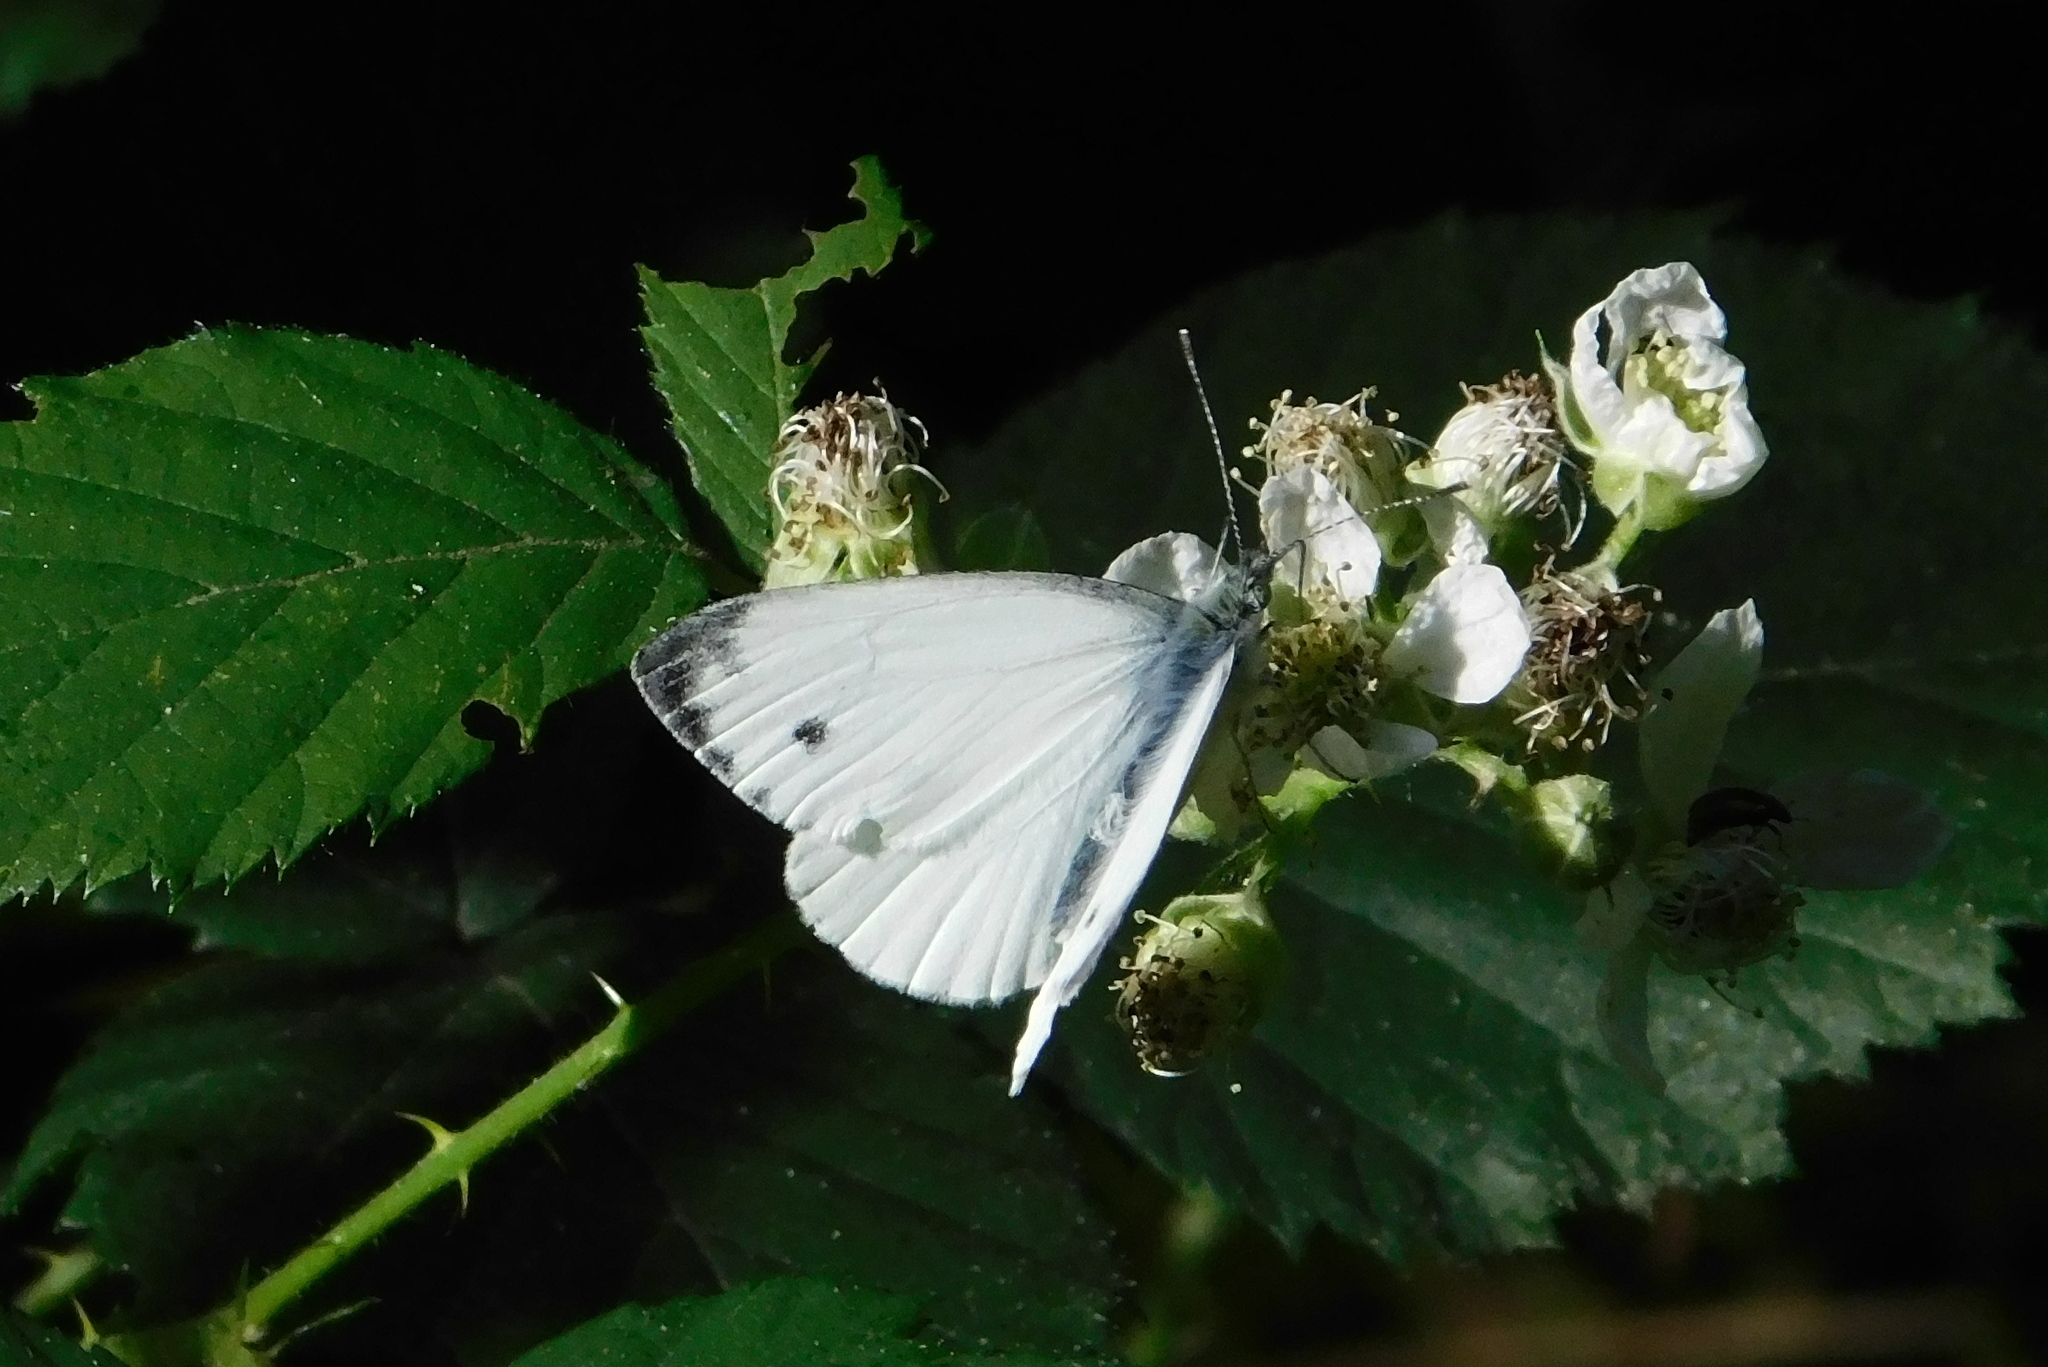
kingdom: Animalia
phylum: Arthropoda
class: Insecta
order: Lepidoptera
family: Pieridae
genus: Pieris
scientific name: Pieris napi
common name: Green-veined white
